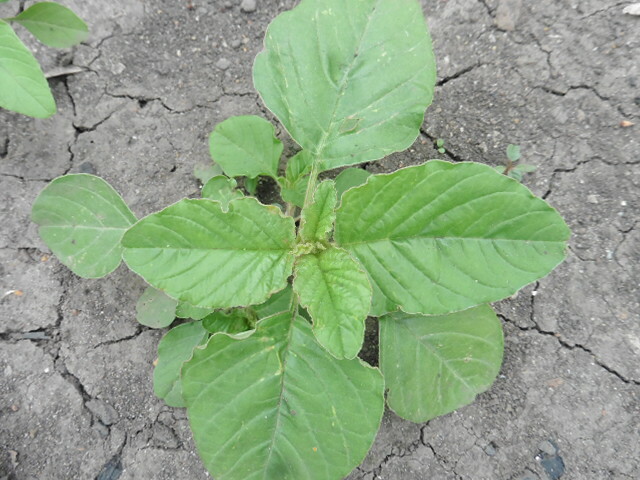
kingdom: Plantae
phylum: Tracheophyta
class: Magnoliopsida
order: Caryophyllales
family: Amaranthaceae
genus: Amaranthus
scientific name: Amaranthus retroflexus
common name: Redroot amaranth
